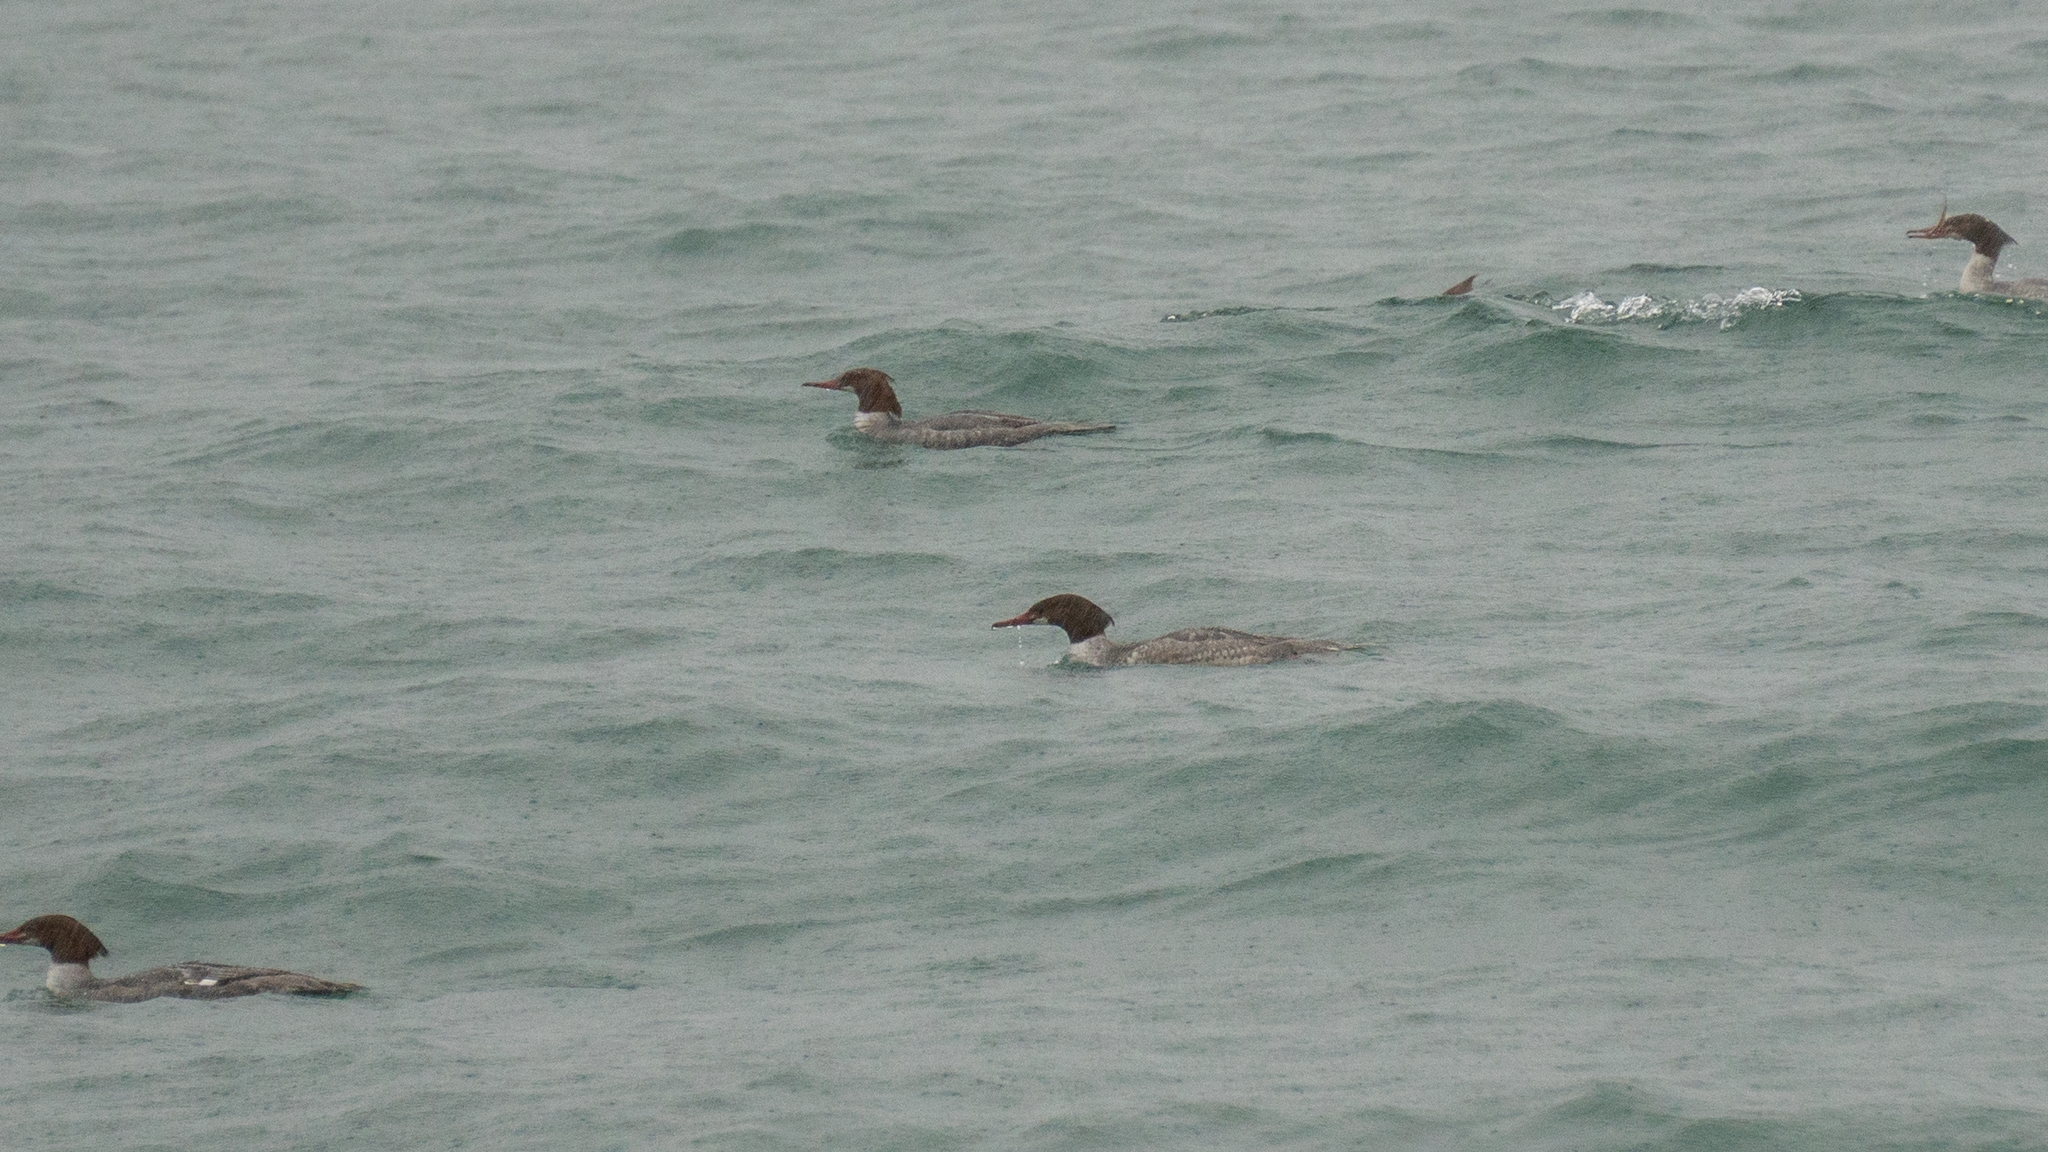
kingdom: Animalia
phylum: Chordata
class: Aves
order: Anseriformes
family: Anatidae
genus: Mergus
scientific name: Mergus merganser
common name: Common merganser
